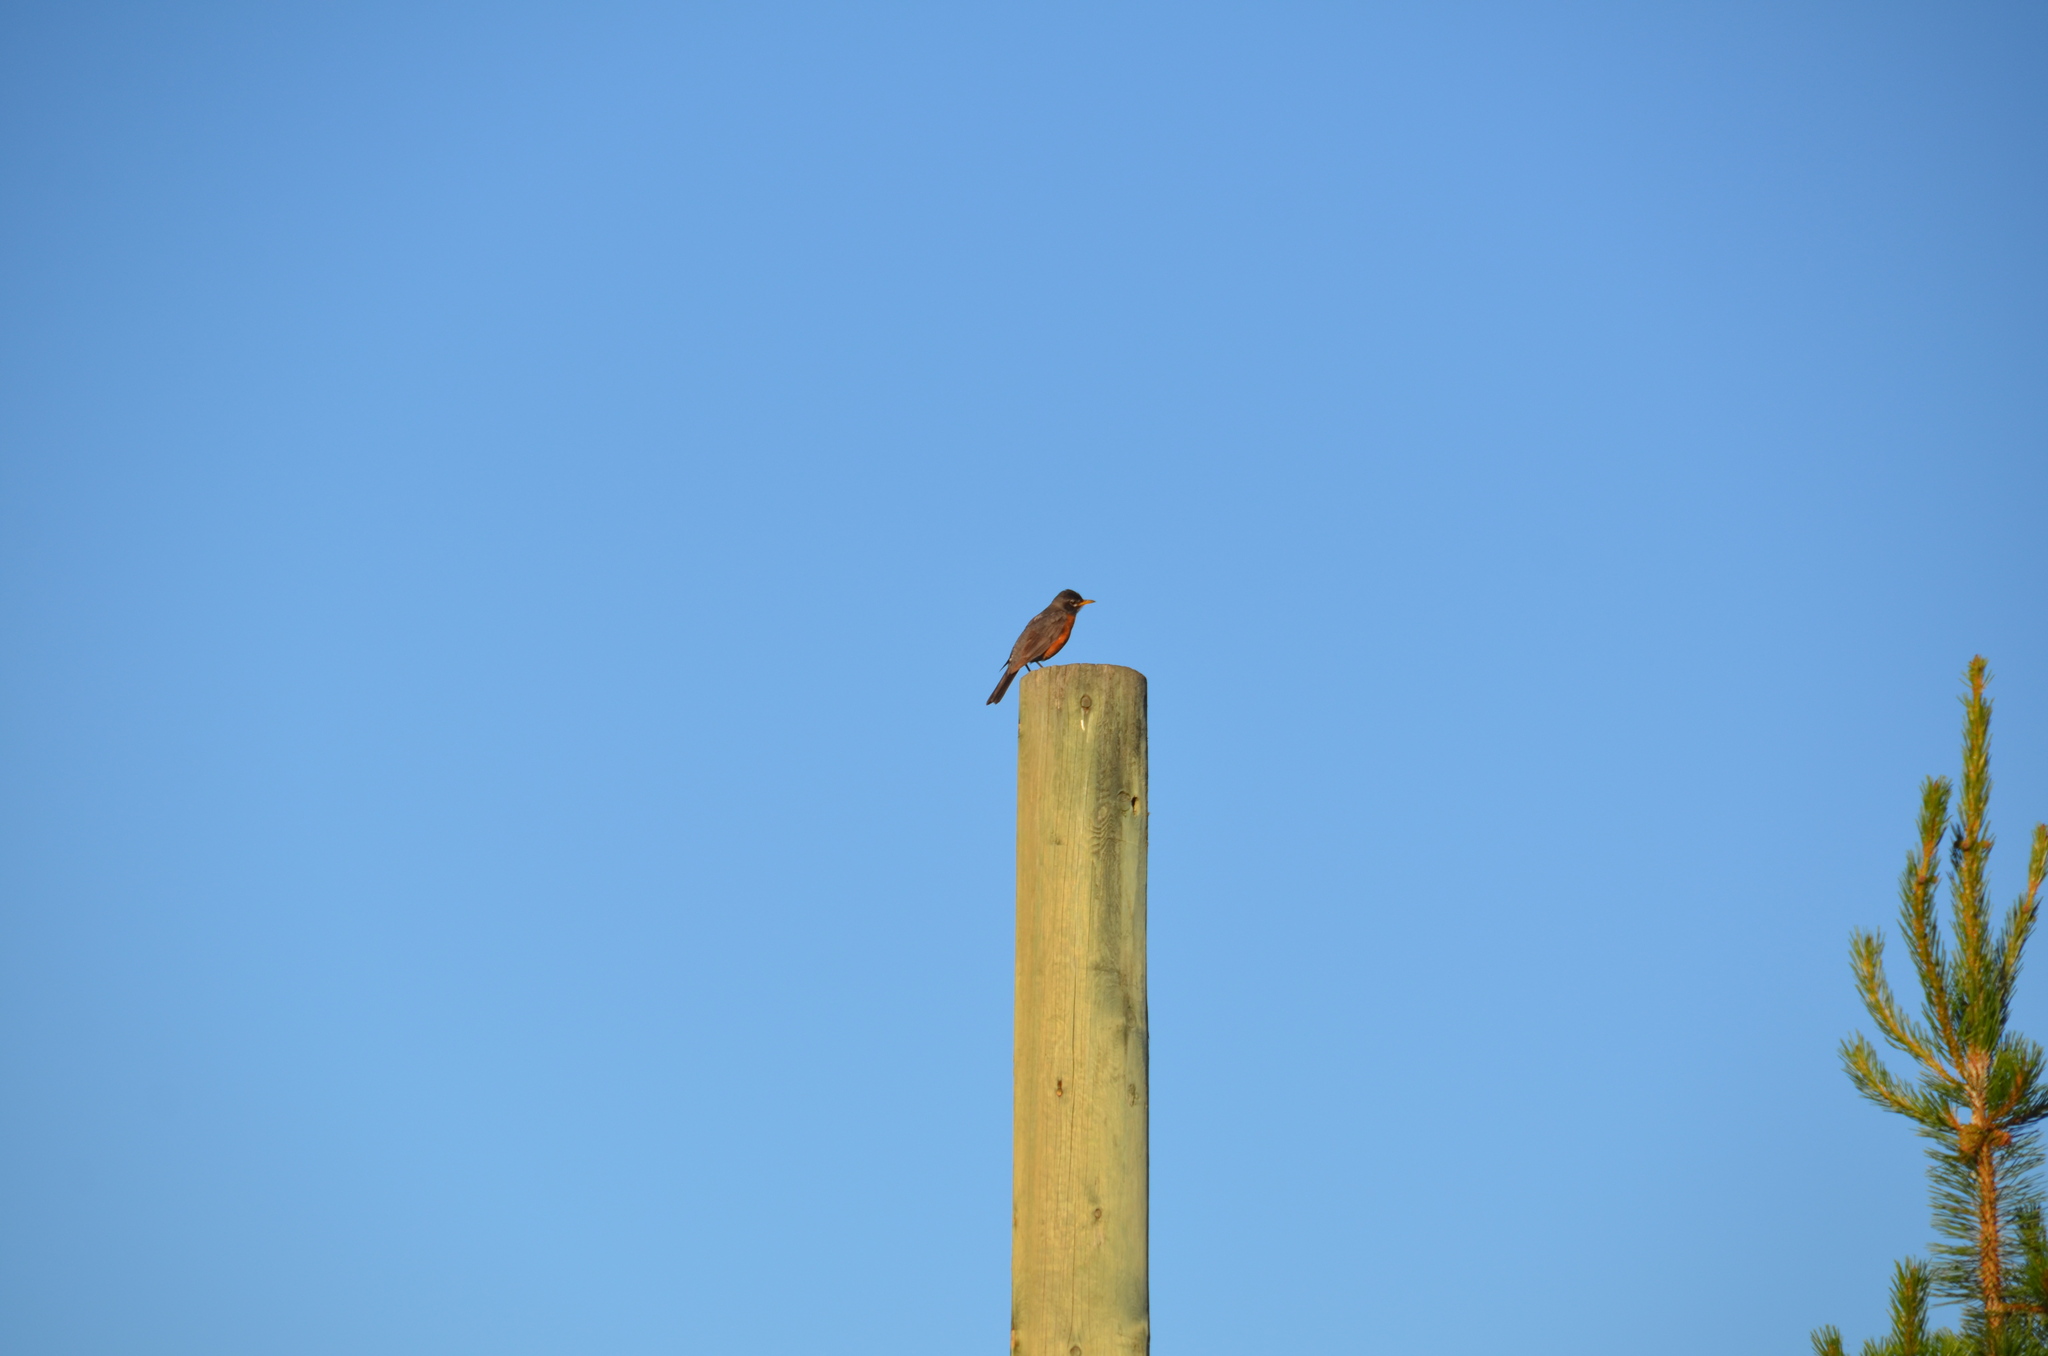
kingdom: Animalia
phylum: Chordata
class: Aves
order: Passeriformes
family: Turdidae
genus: Turdus
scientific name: Turdus migratorius
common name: American robin
